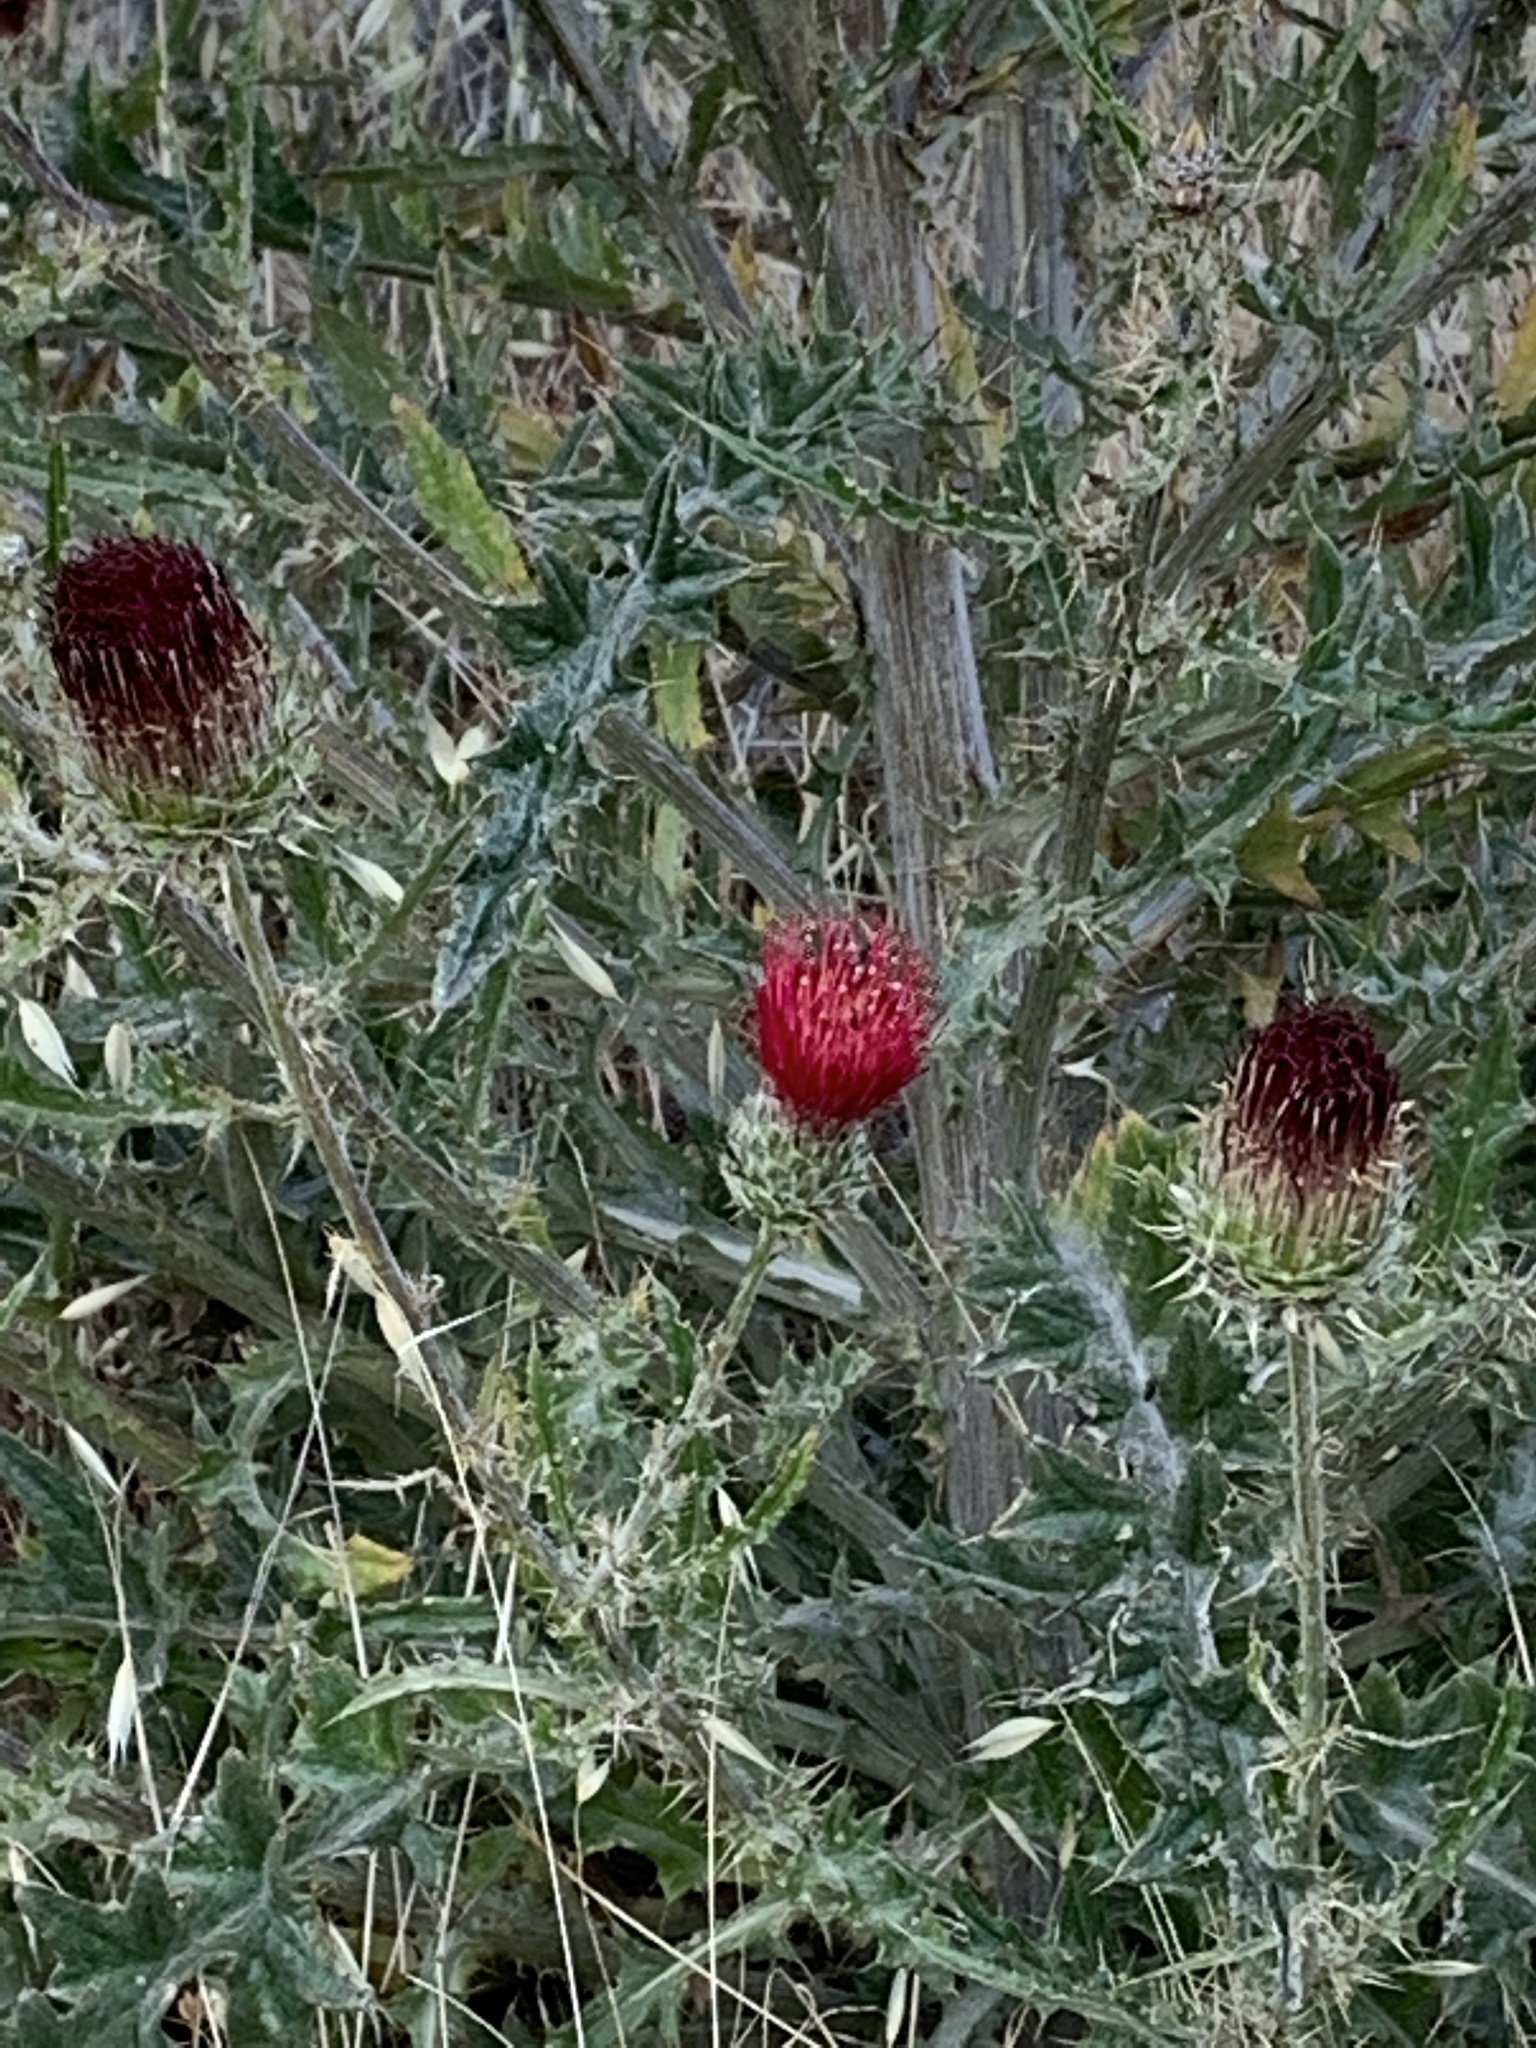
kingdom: Plantae
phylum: Tracheophyta
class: Magnoliopsida
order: Asterales
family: Asteraceae
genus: Cirsium
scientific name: Cirsium occidentale
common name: Western thistle
